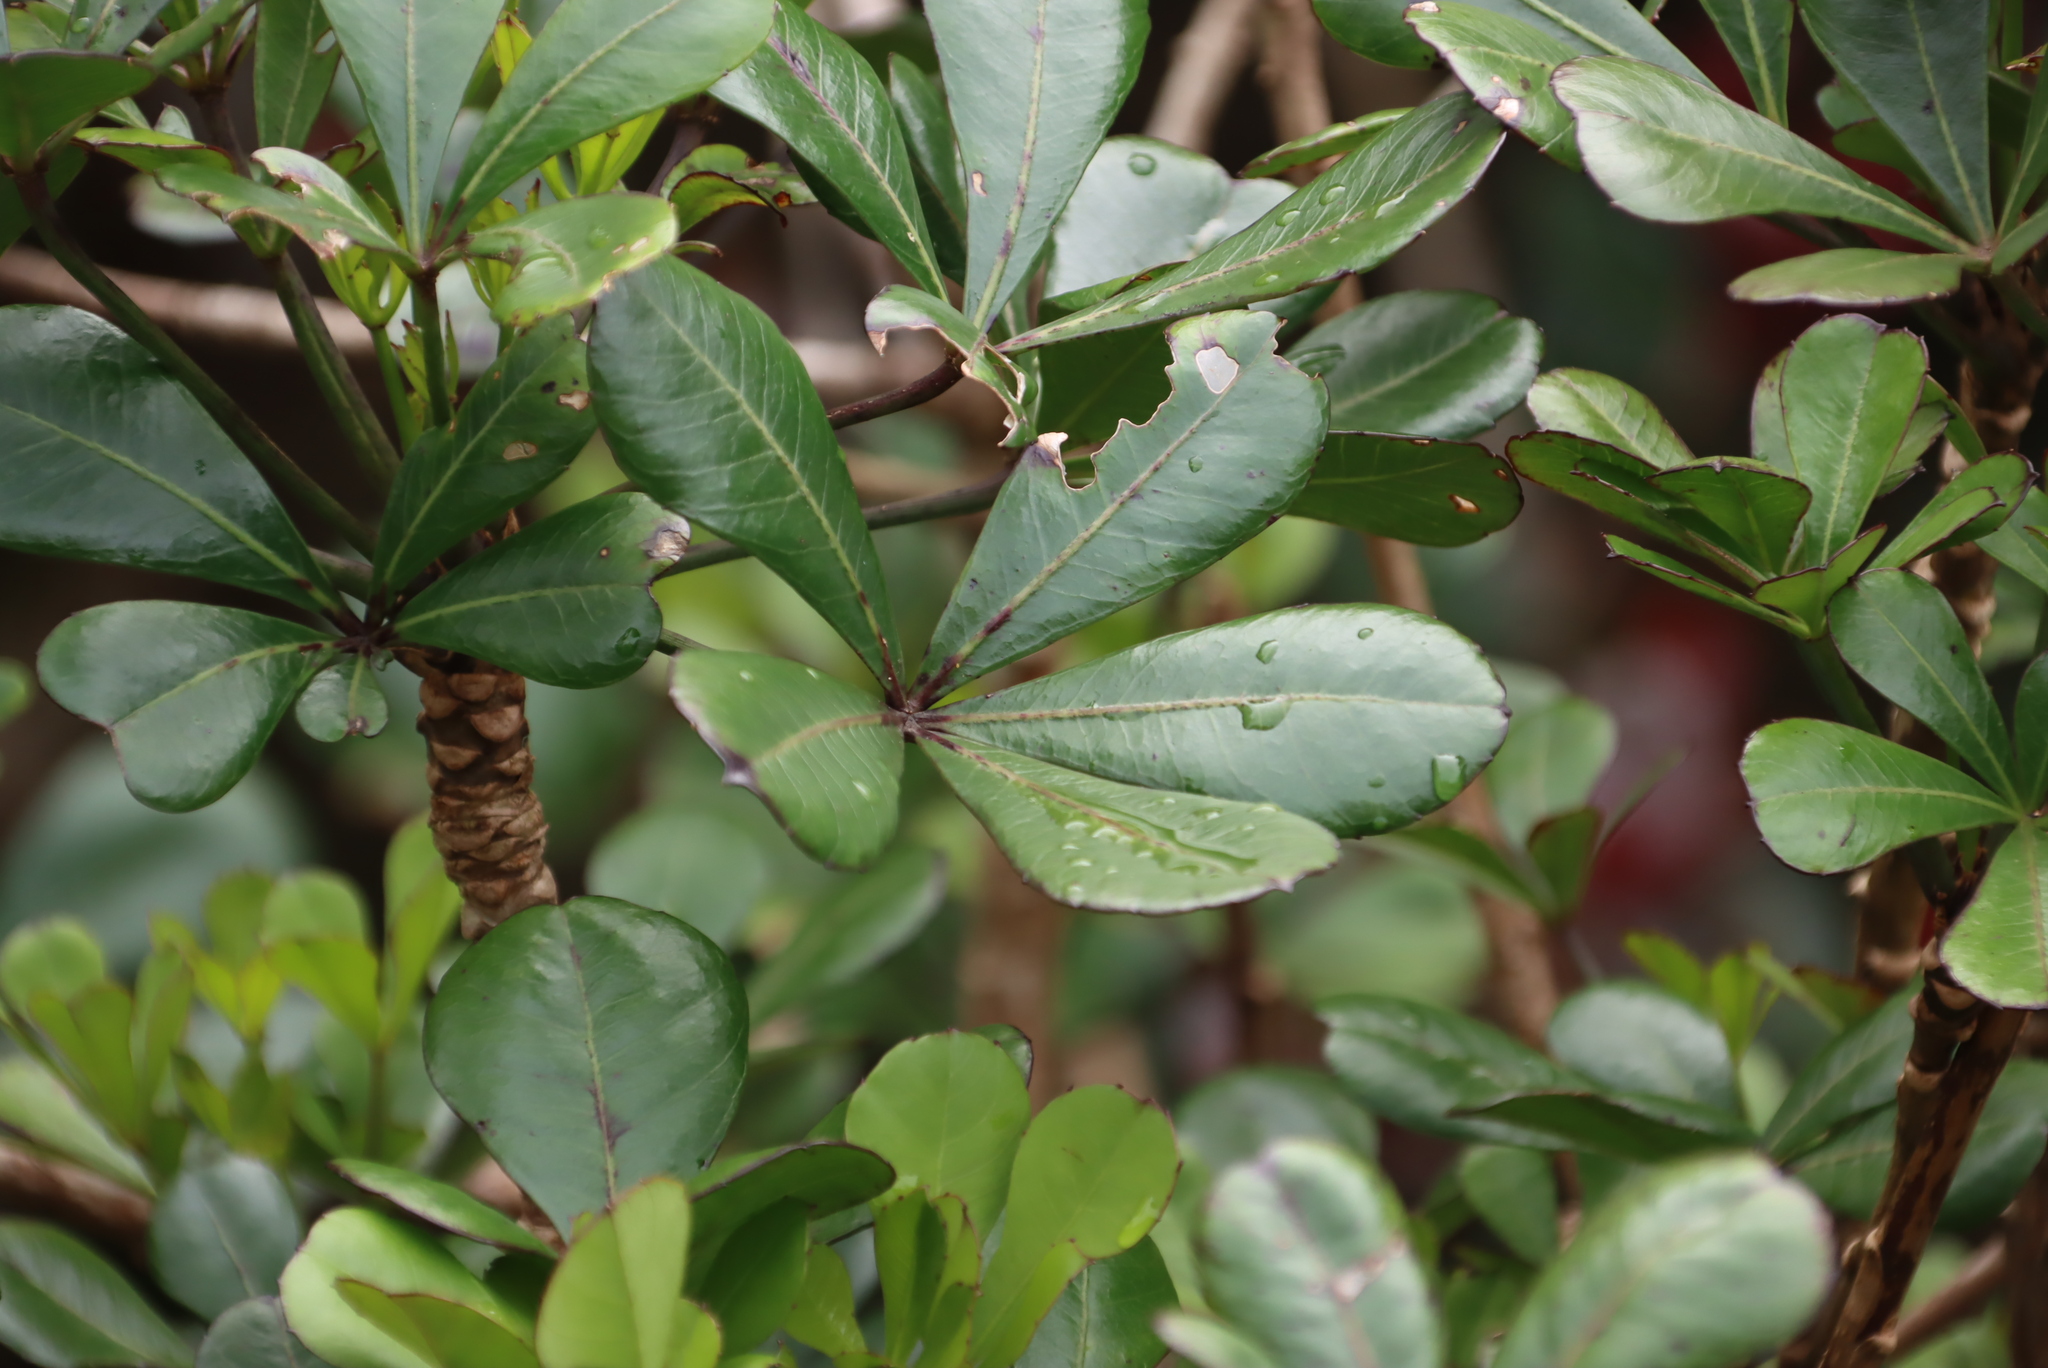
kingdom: Plantae
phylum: Tracheophyta
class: Magnoliopsida
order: Apiales
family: Araliaceae
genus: Cussonia
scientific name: Cussonia thyrsiflora
